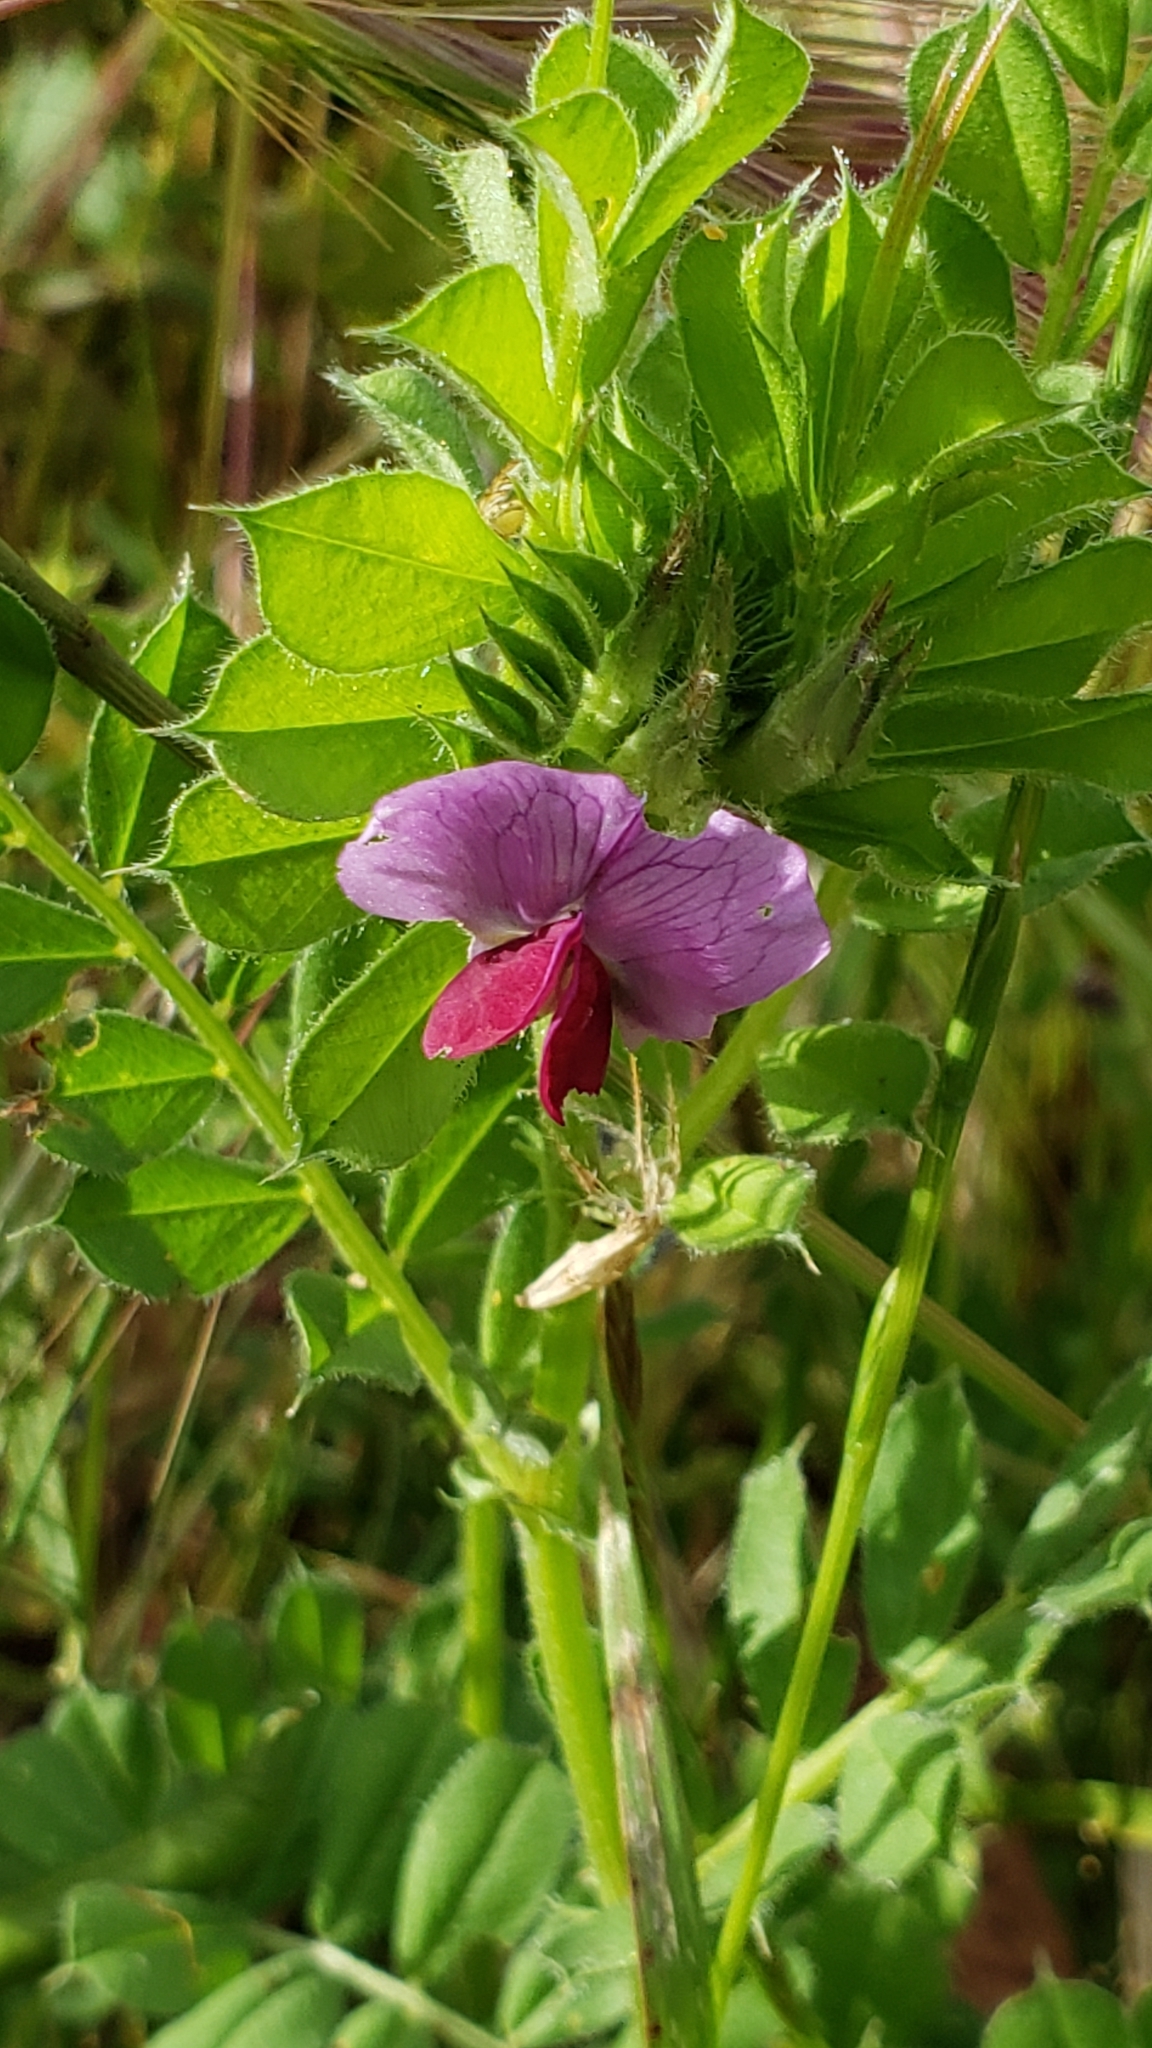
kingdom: Plantae
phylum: Tracheophyta
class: Magnoliopsida
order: Fabales
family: Fabaceae
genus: Vicia
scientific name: Vicia sativa
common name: Garden vetch
